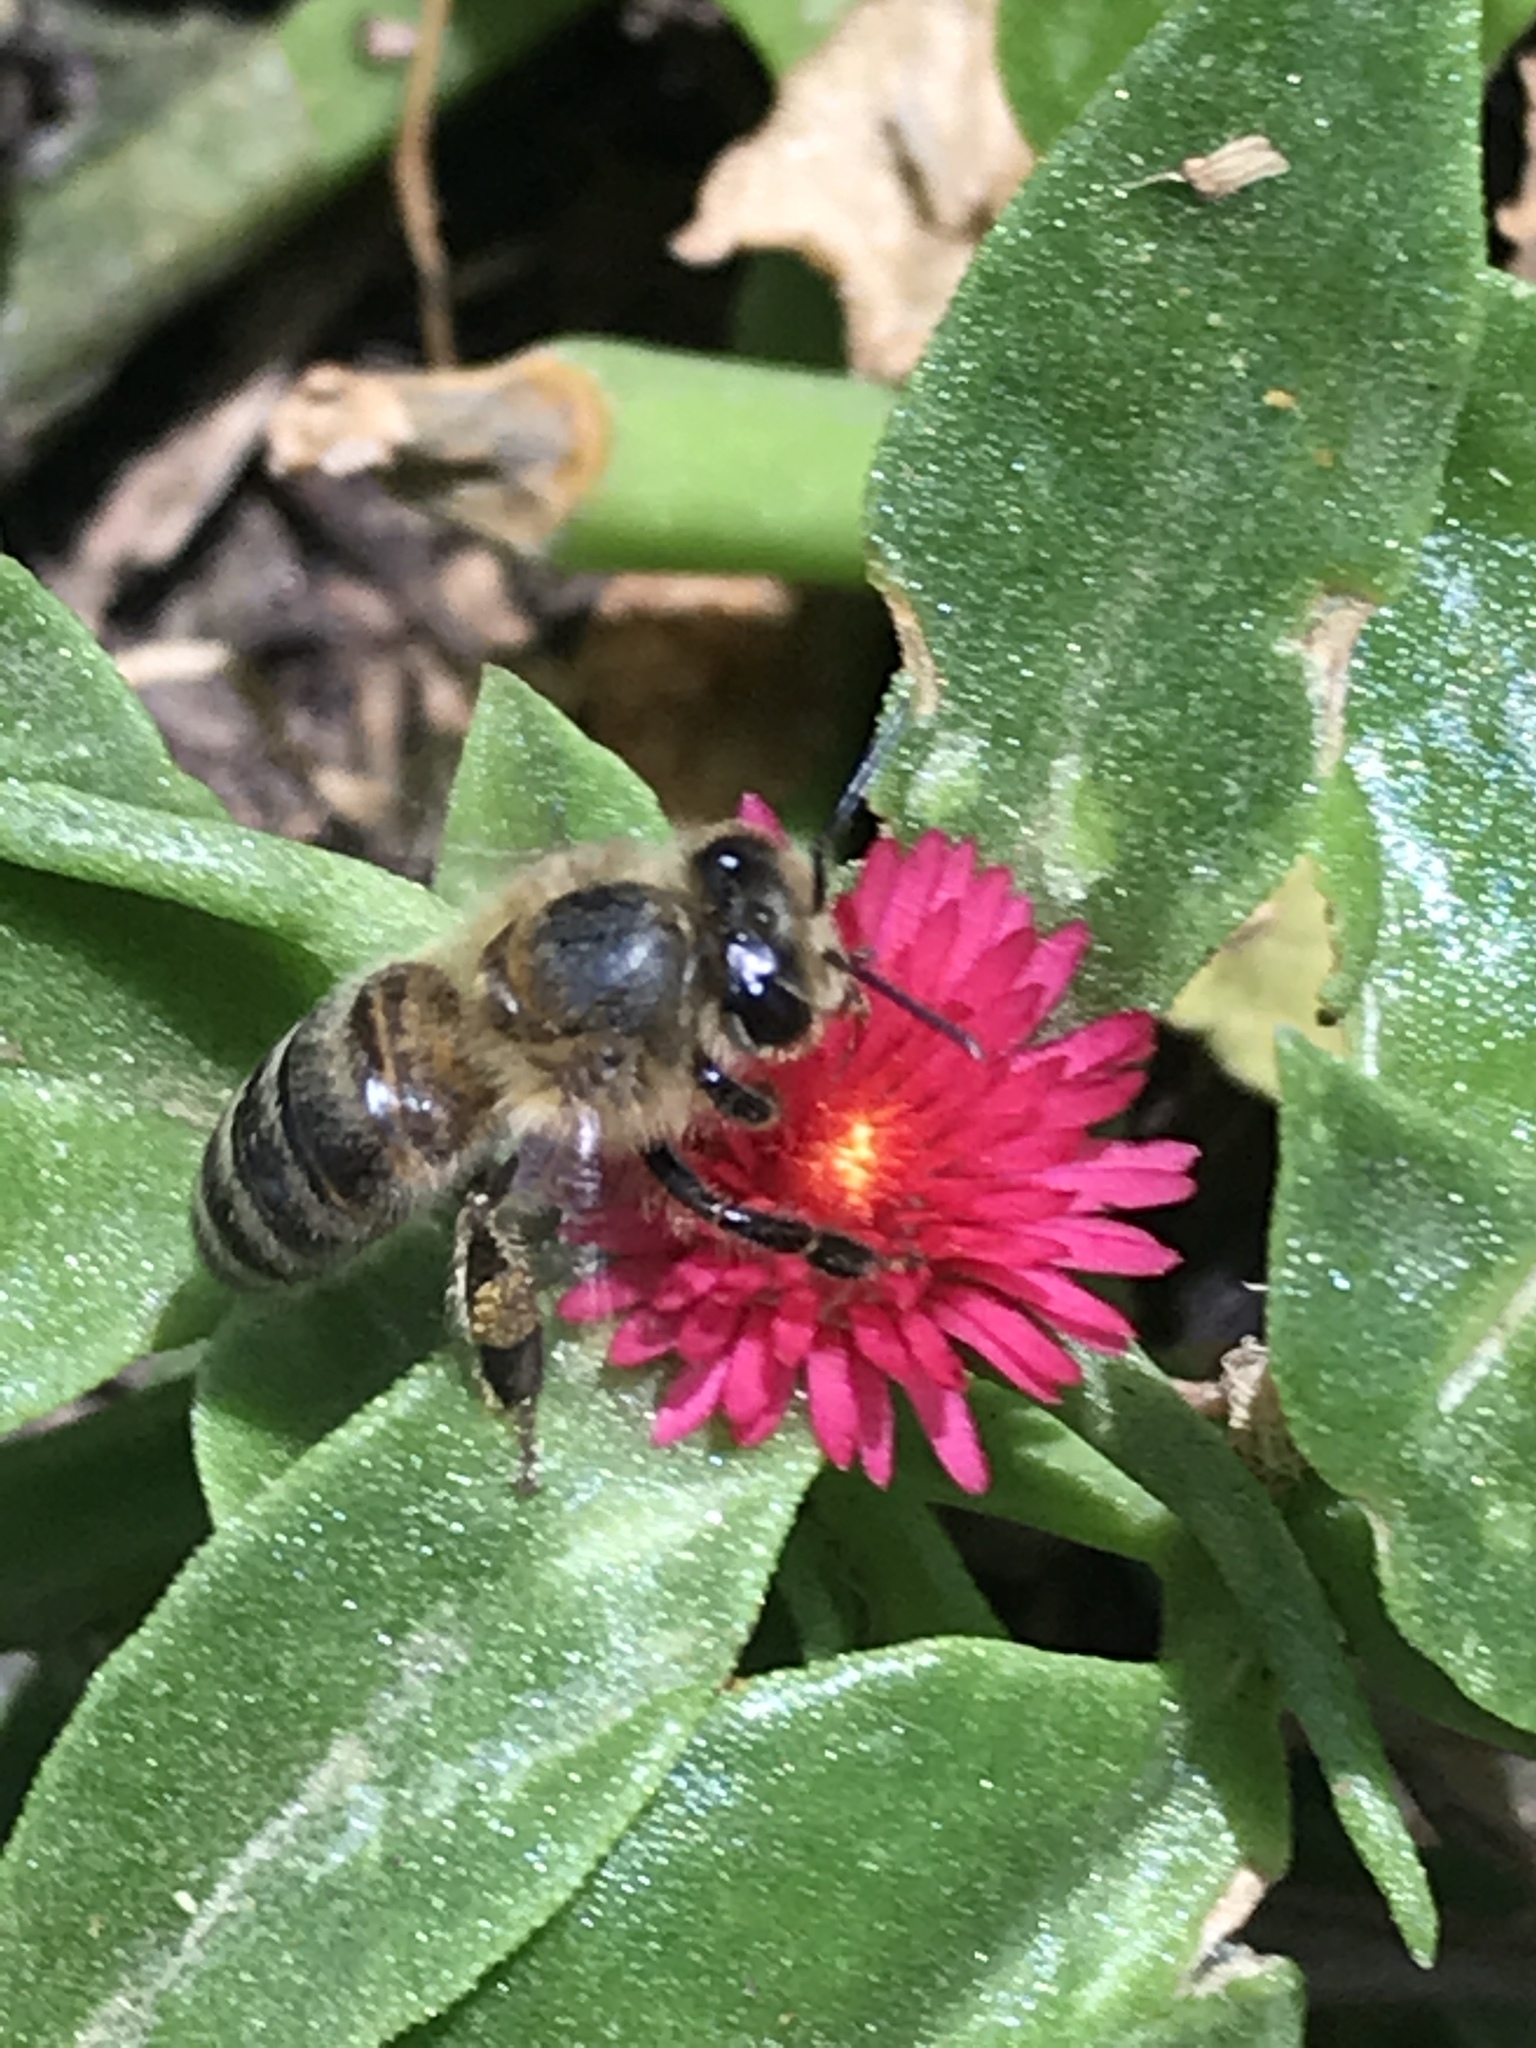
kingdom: Animalia
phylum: Arthropoda
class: Insecta
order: Hymenoptera
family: Apidae
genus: Apis
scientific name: Apis mellifera
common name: Honey bee
